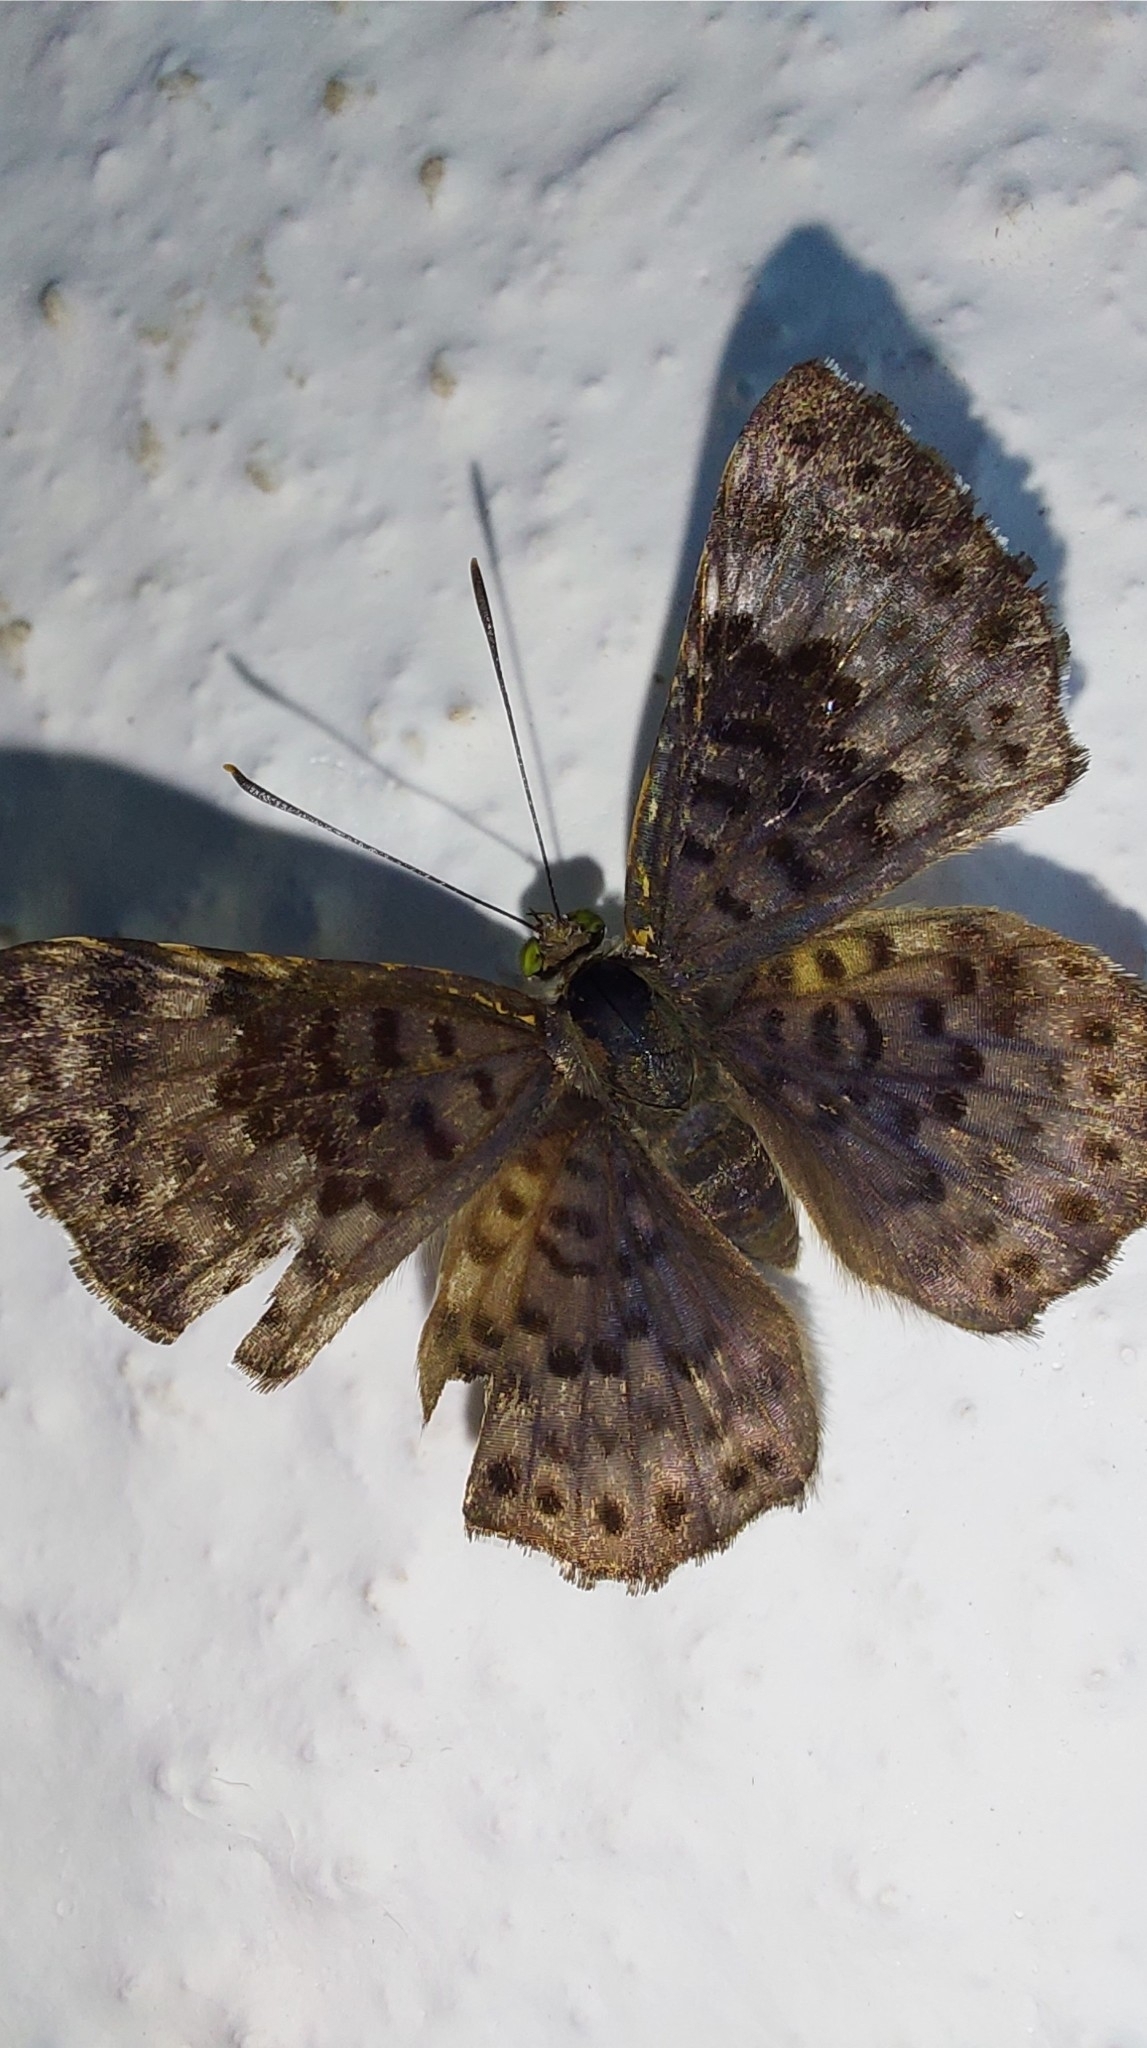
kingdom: Animalia
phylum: Arthropoda
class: Insecta
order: Lepidoptera
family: Riodinidae
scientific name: Riodinidae
